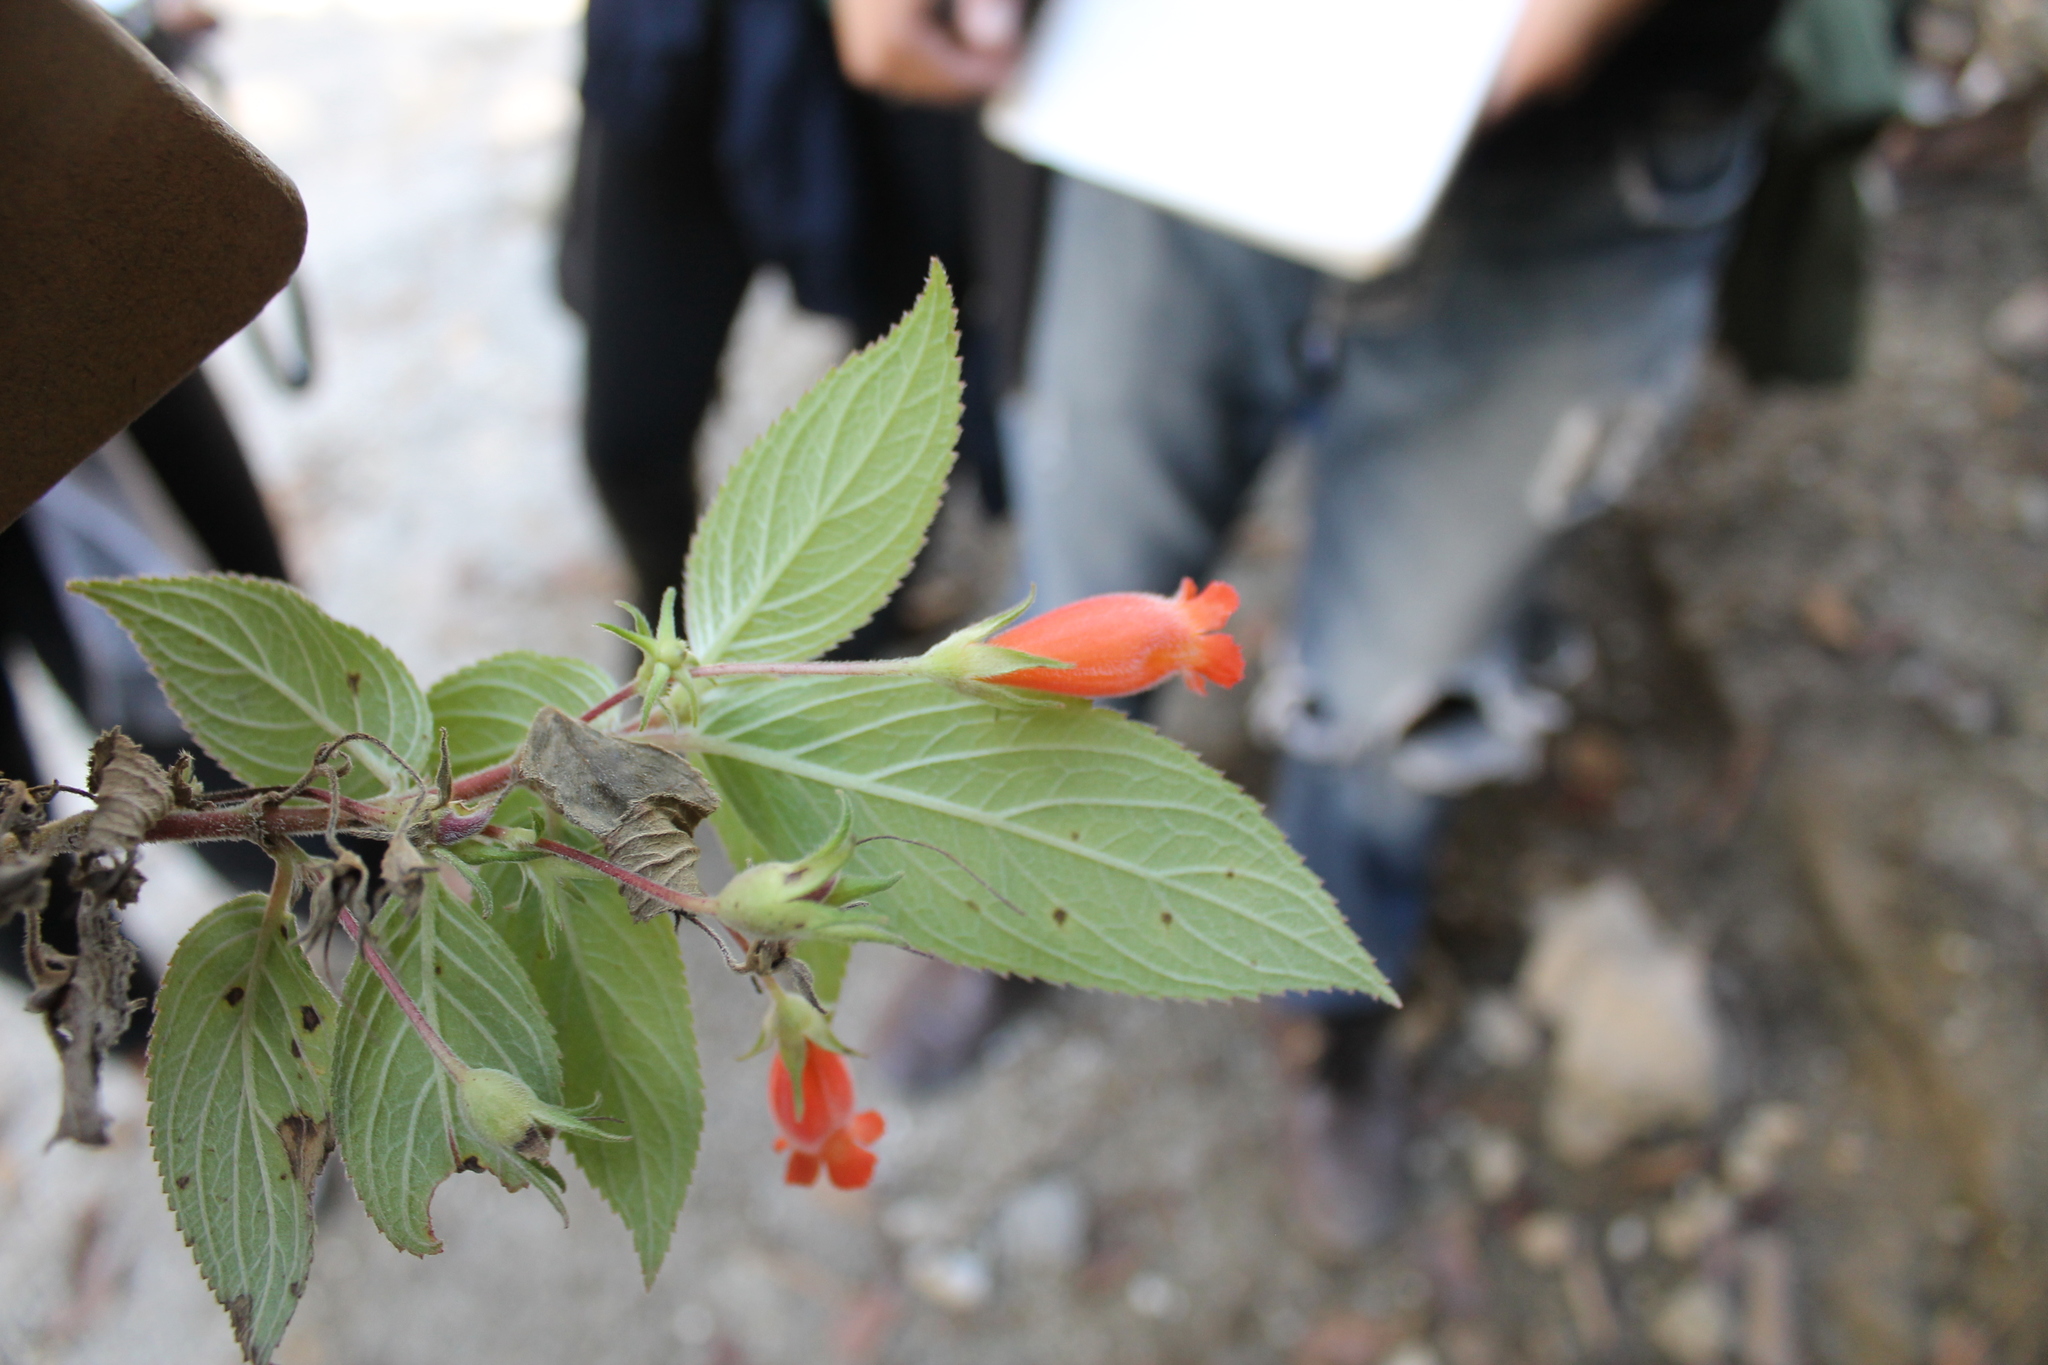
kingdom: Plantae
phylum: Tracheophyta
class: Magnoliopsida
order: Lamiales
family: Gesneriaceae
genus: Moussonia
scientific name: Moussonia jaliscana
